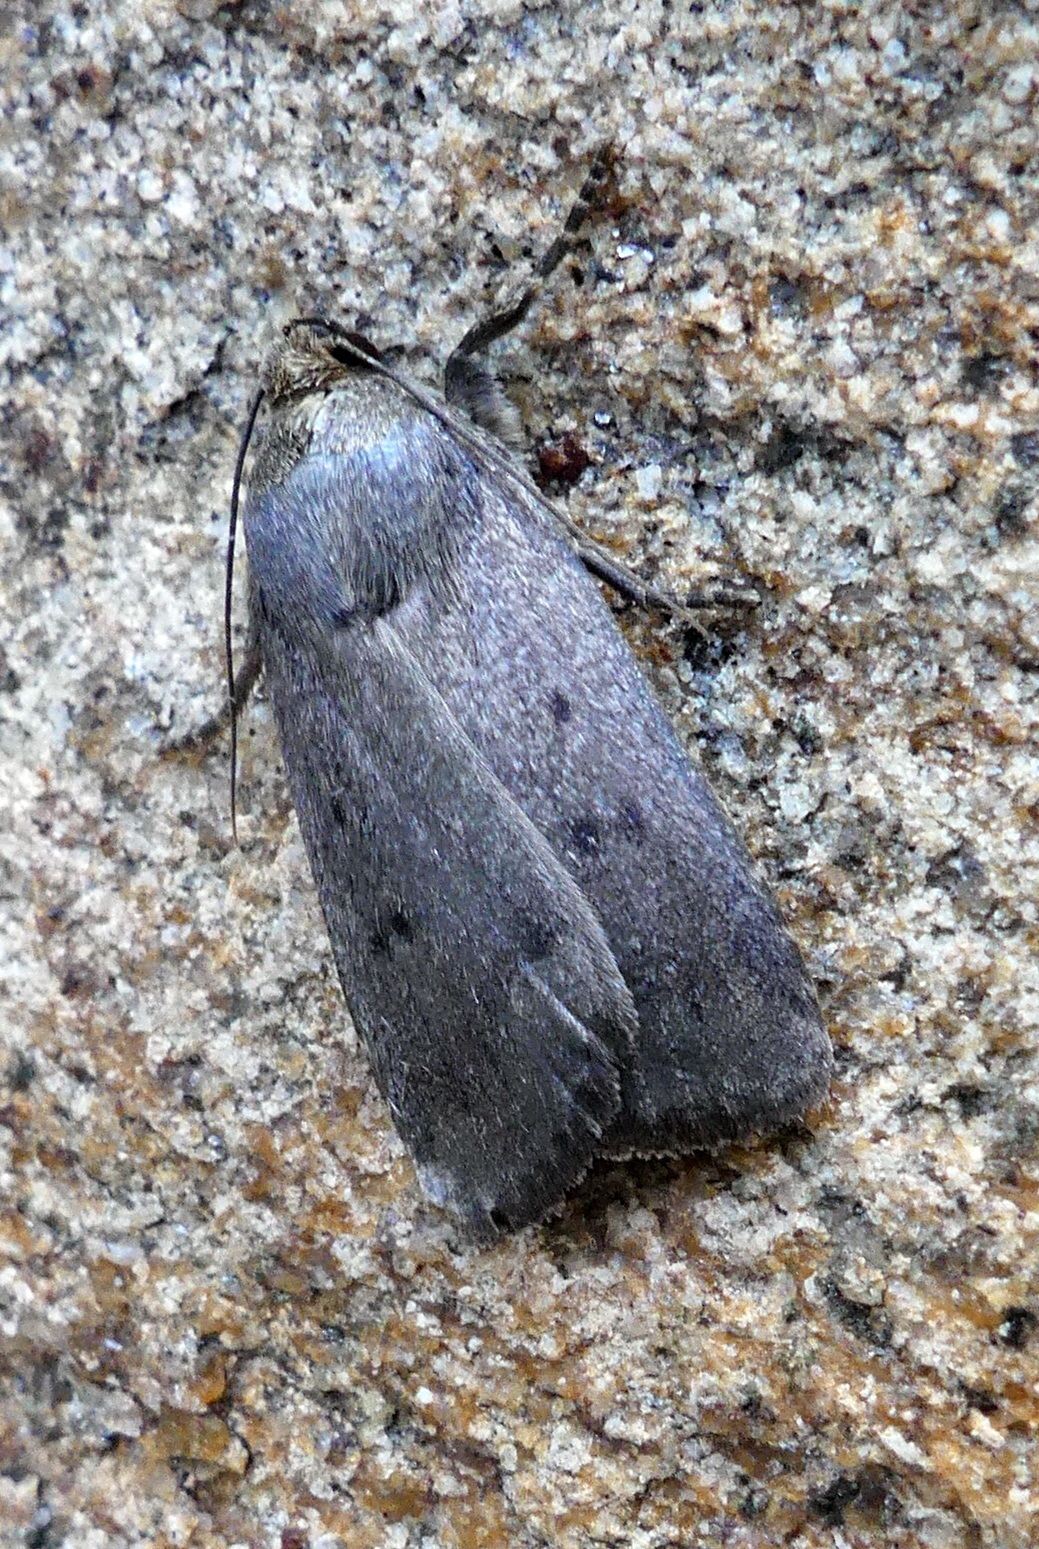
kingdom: Animalia
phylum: Arthropoda
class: Insecta
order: Lepidoptera
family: Noctuidae
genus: Amphipyra
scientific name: Amphipyra tragopoginis
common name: Mouse moth
